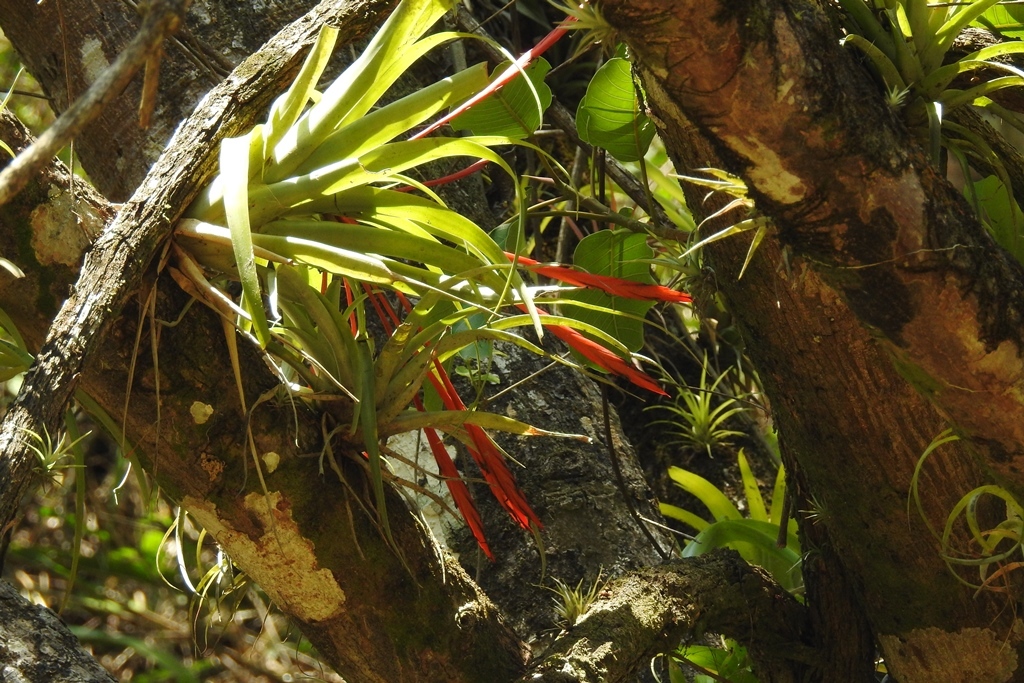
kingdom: Plantae
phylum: Tracheophyta
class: Liliopsida
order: Poales
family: Bromeliaceae
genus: Tillandsia
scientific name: Tillandsia flabellata
